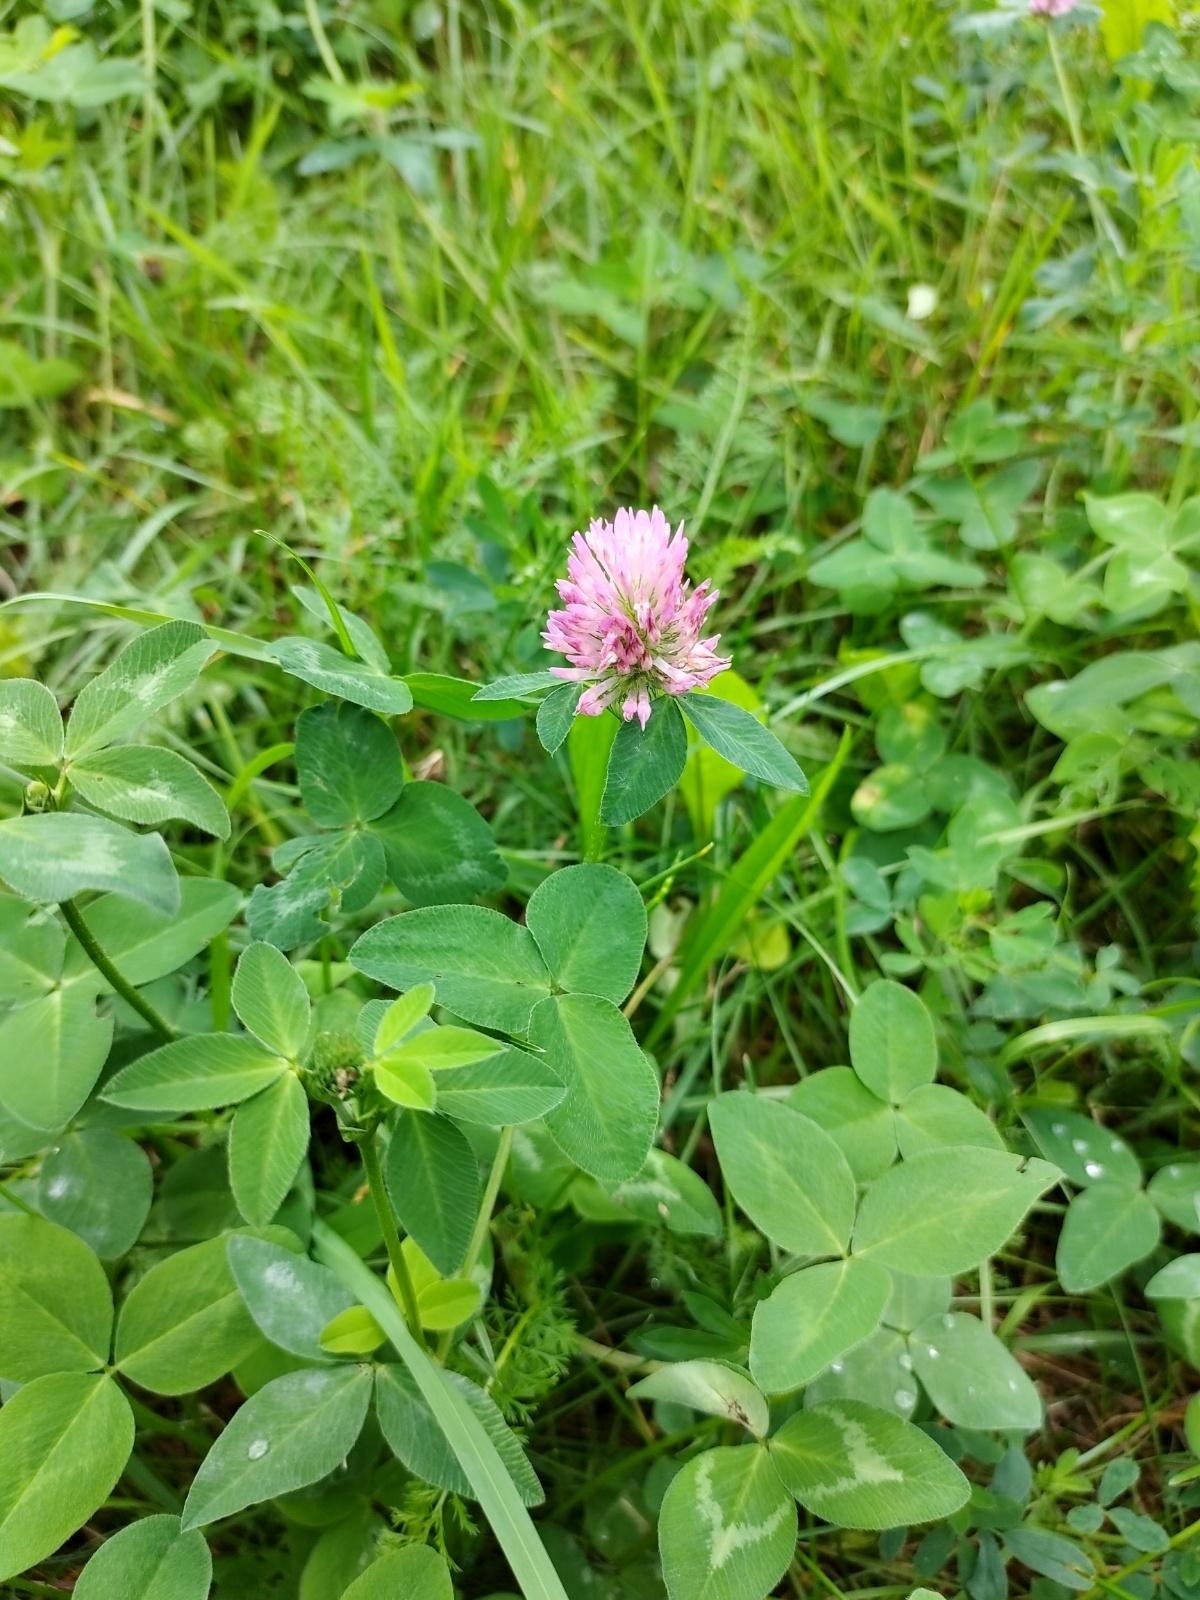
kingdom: Plantae
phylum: Tracheophyta
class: Magnoliopsida
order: Fabales
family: Fabaceae
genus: Trifolium
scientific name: Trifolium pratense
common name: Red clover
